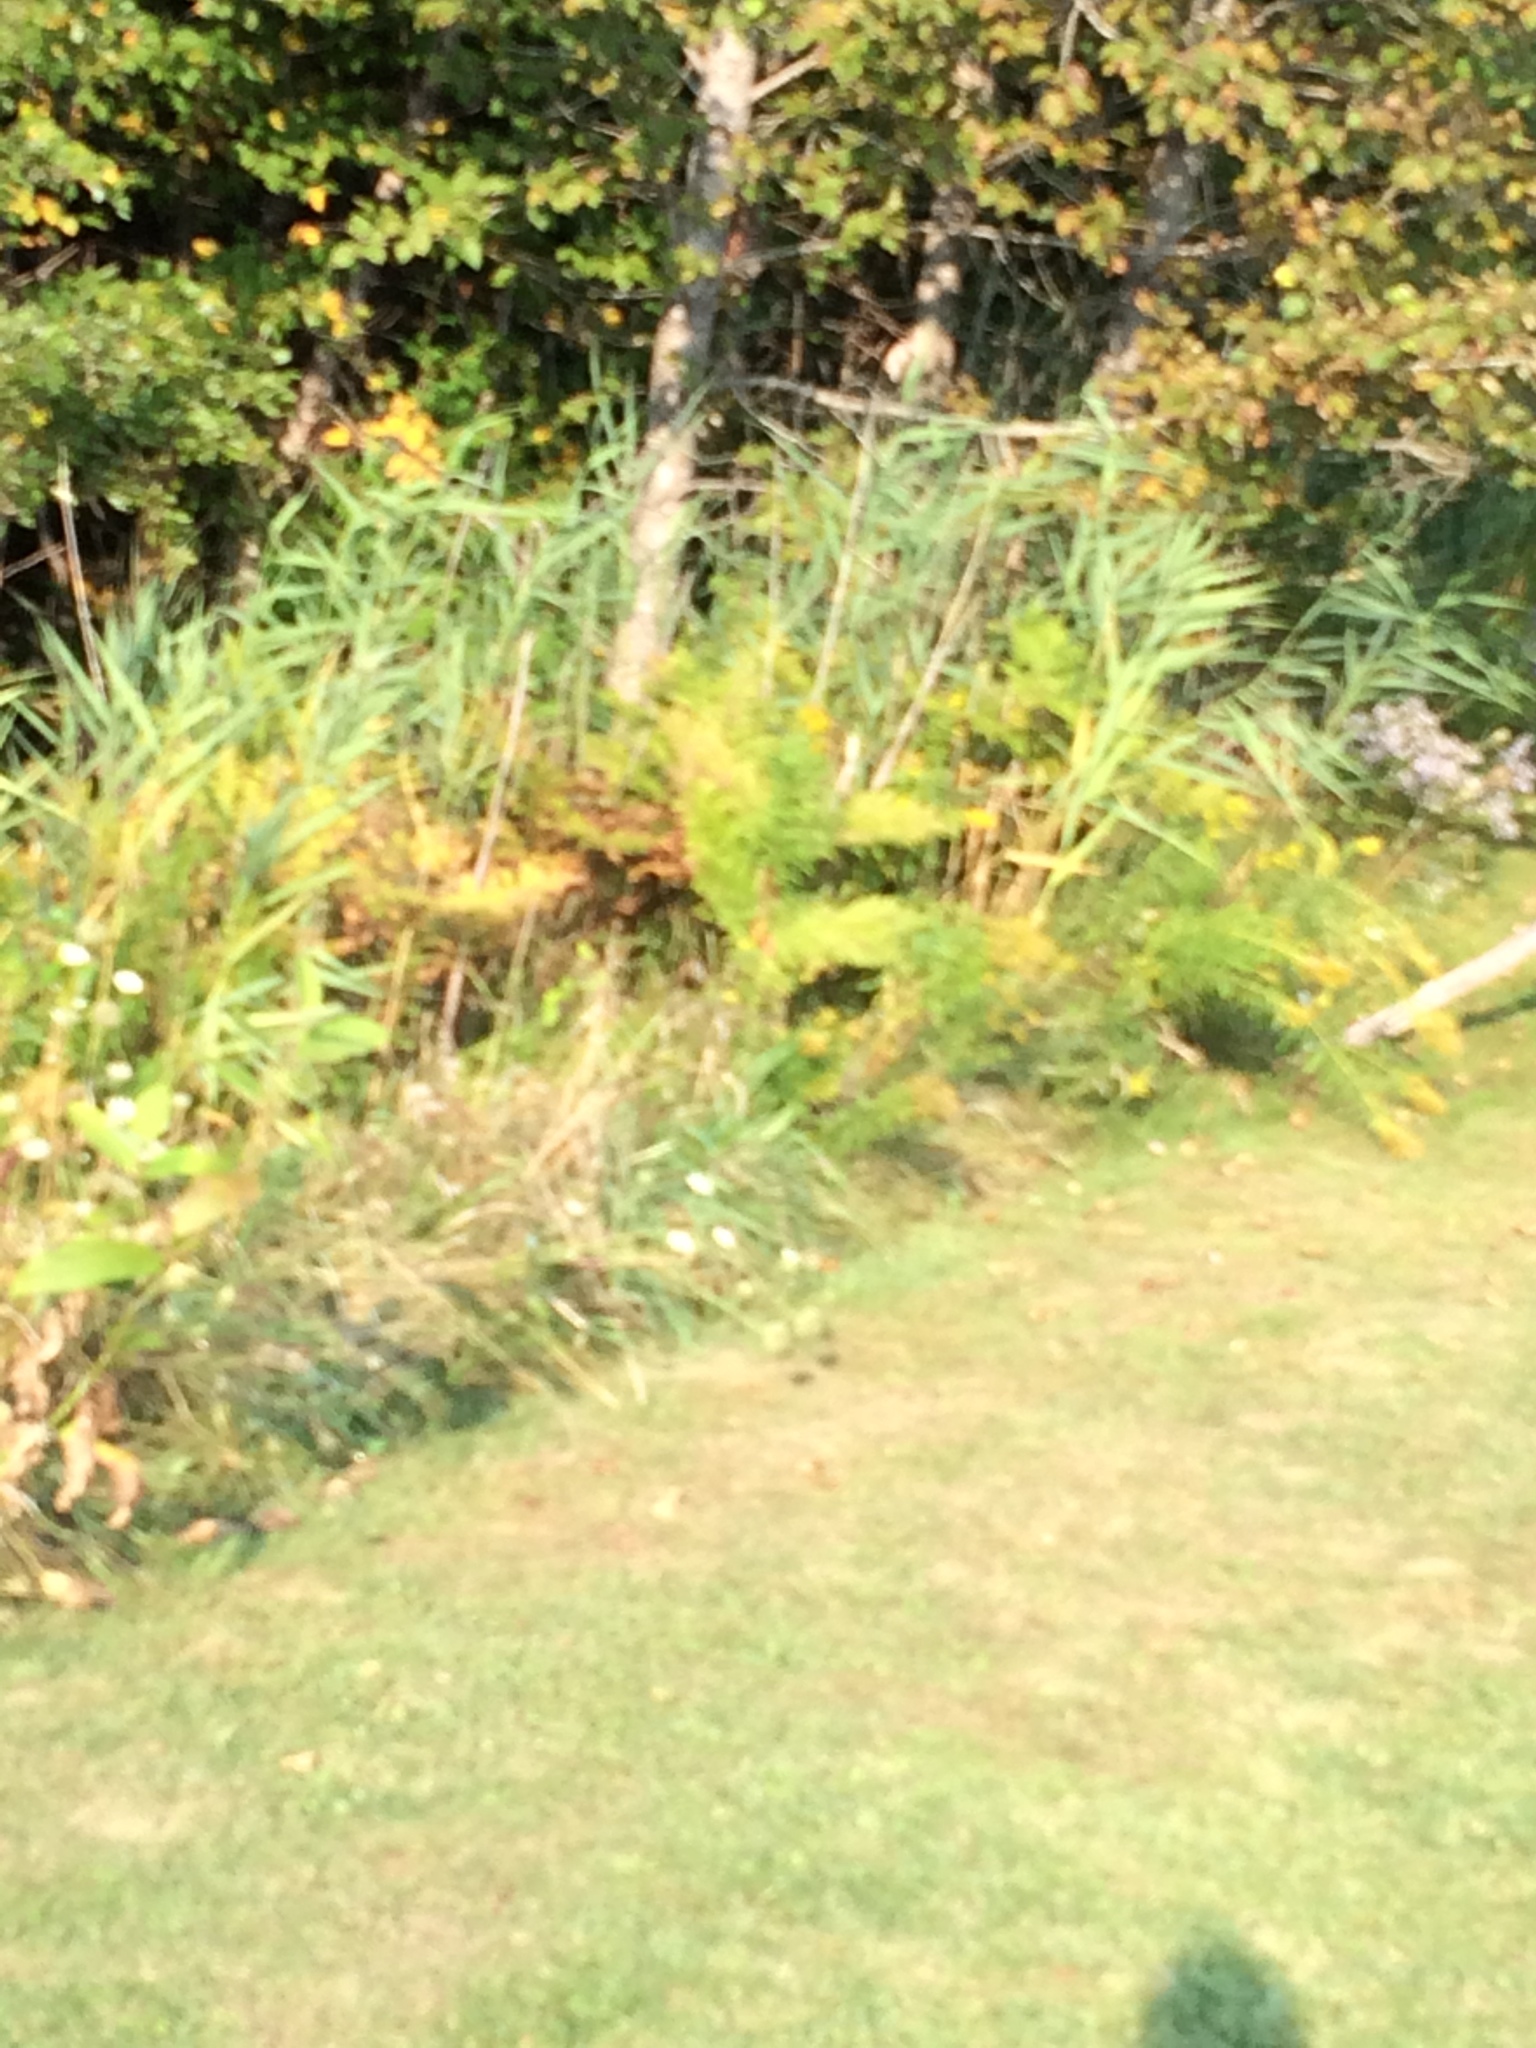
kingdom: Plantae
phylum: Tracheophyta
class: Liliopsida
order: Poales
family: Poaceae
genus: Phragmites
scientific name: Phragmites australis
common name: Common reed
